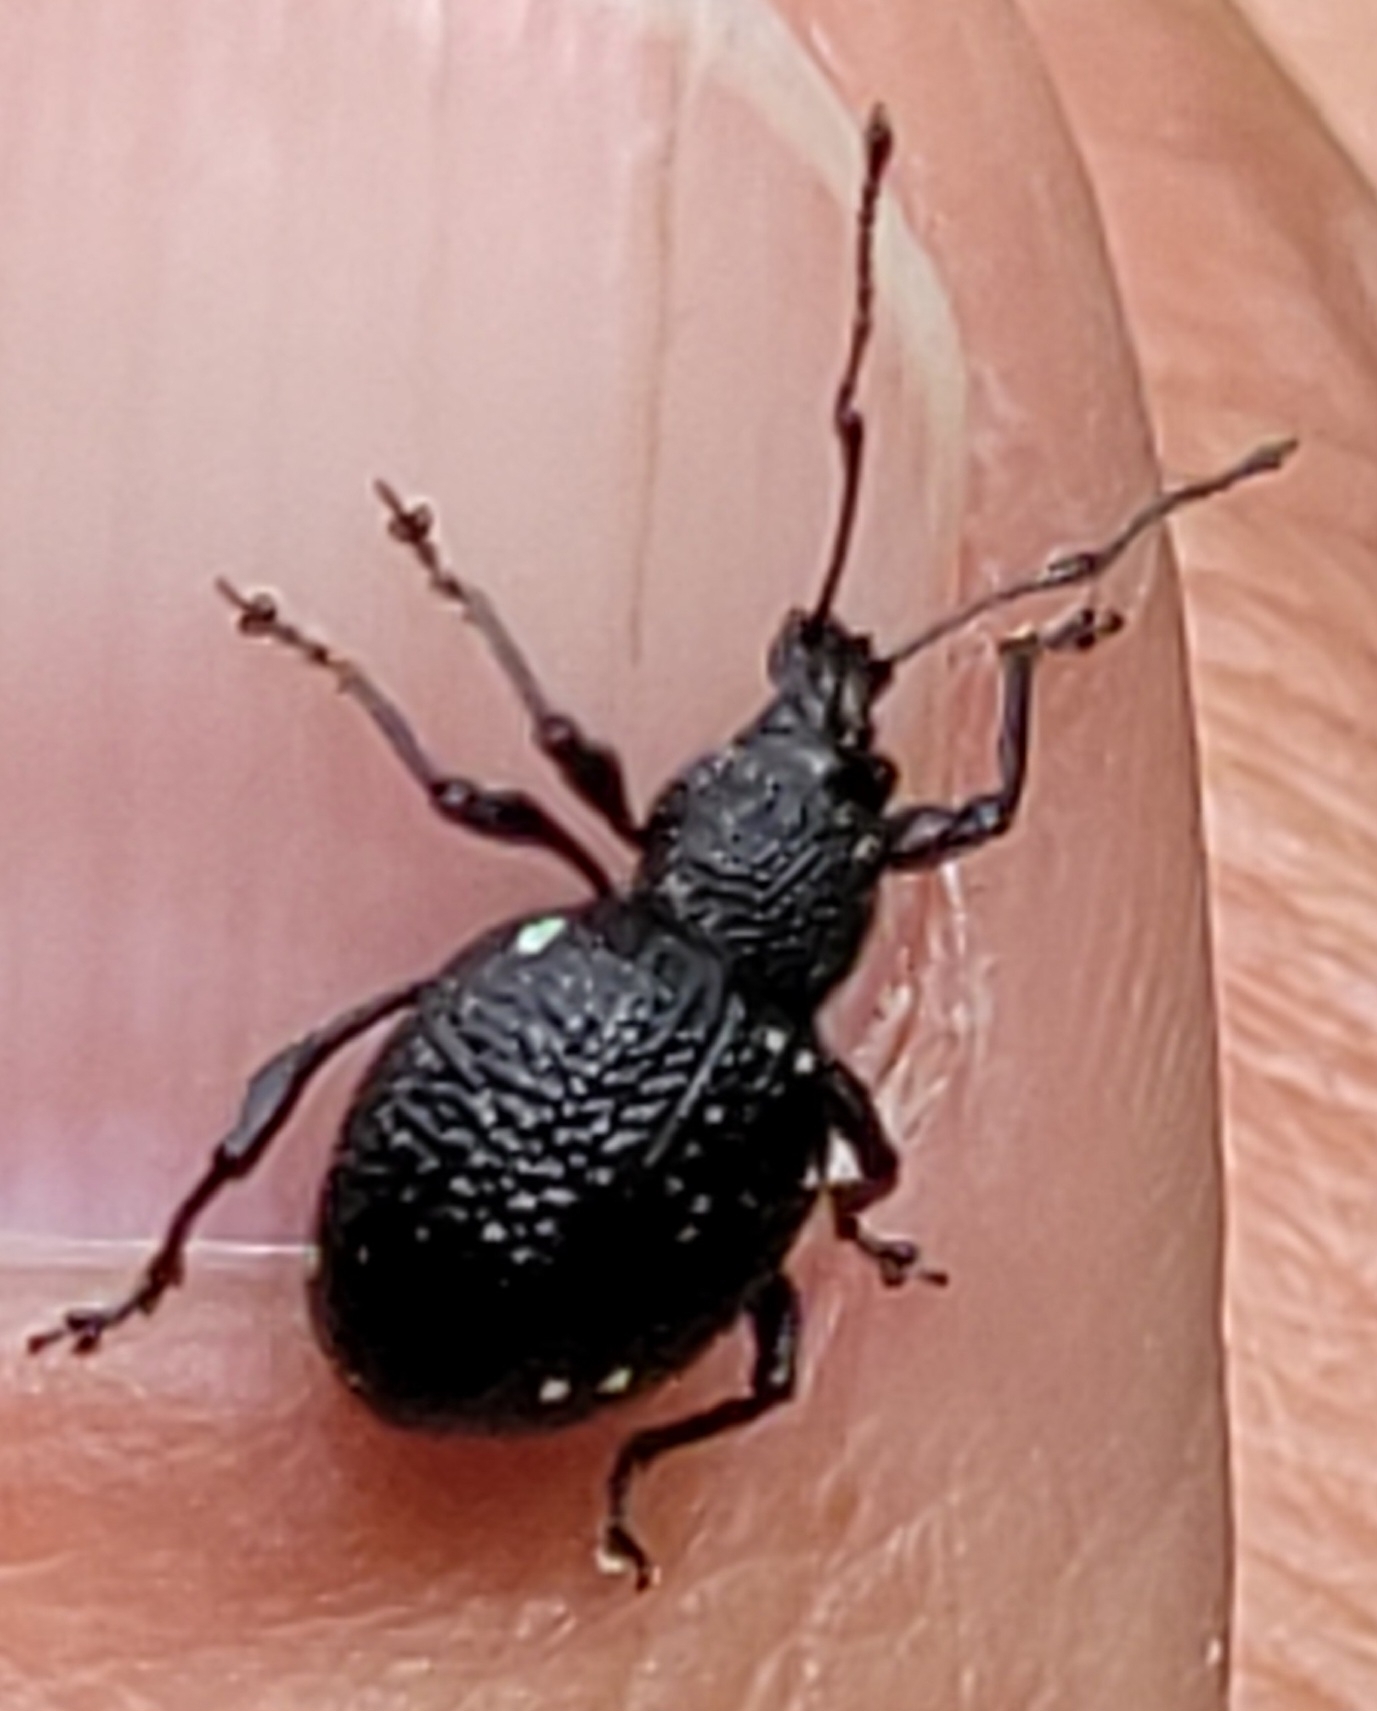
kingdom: Animalia
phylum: Arthropoda
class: Insecta
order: Coleoptera
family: Curculionidae
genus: Otiorhynchus
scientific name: Otiorhynchus gemmatus
